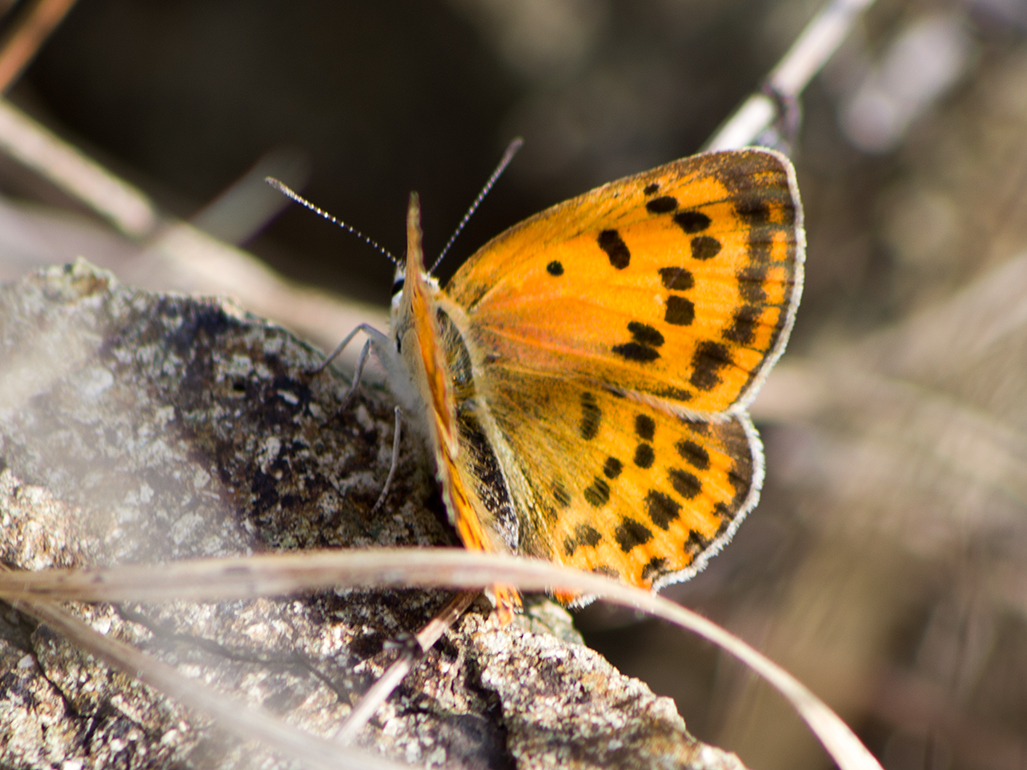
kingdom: Animalia
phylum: Arthropoda
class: Insecta
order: Lepidoptera
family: Lycaenidae
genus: Polyommatus
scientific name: Polyommatus ottomanus
